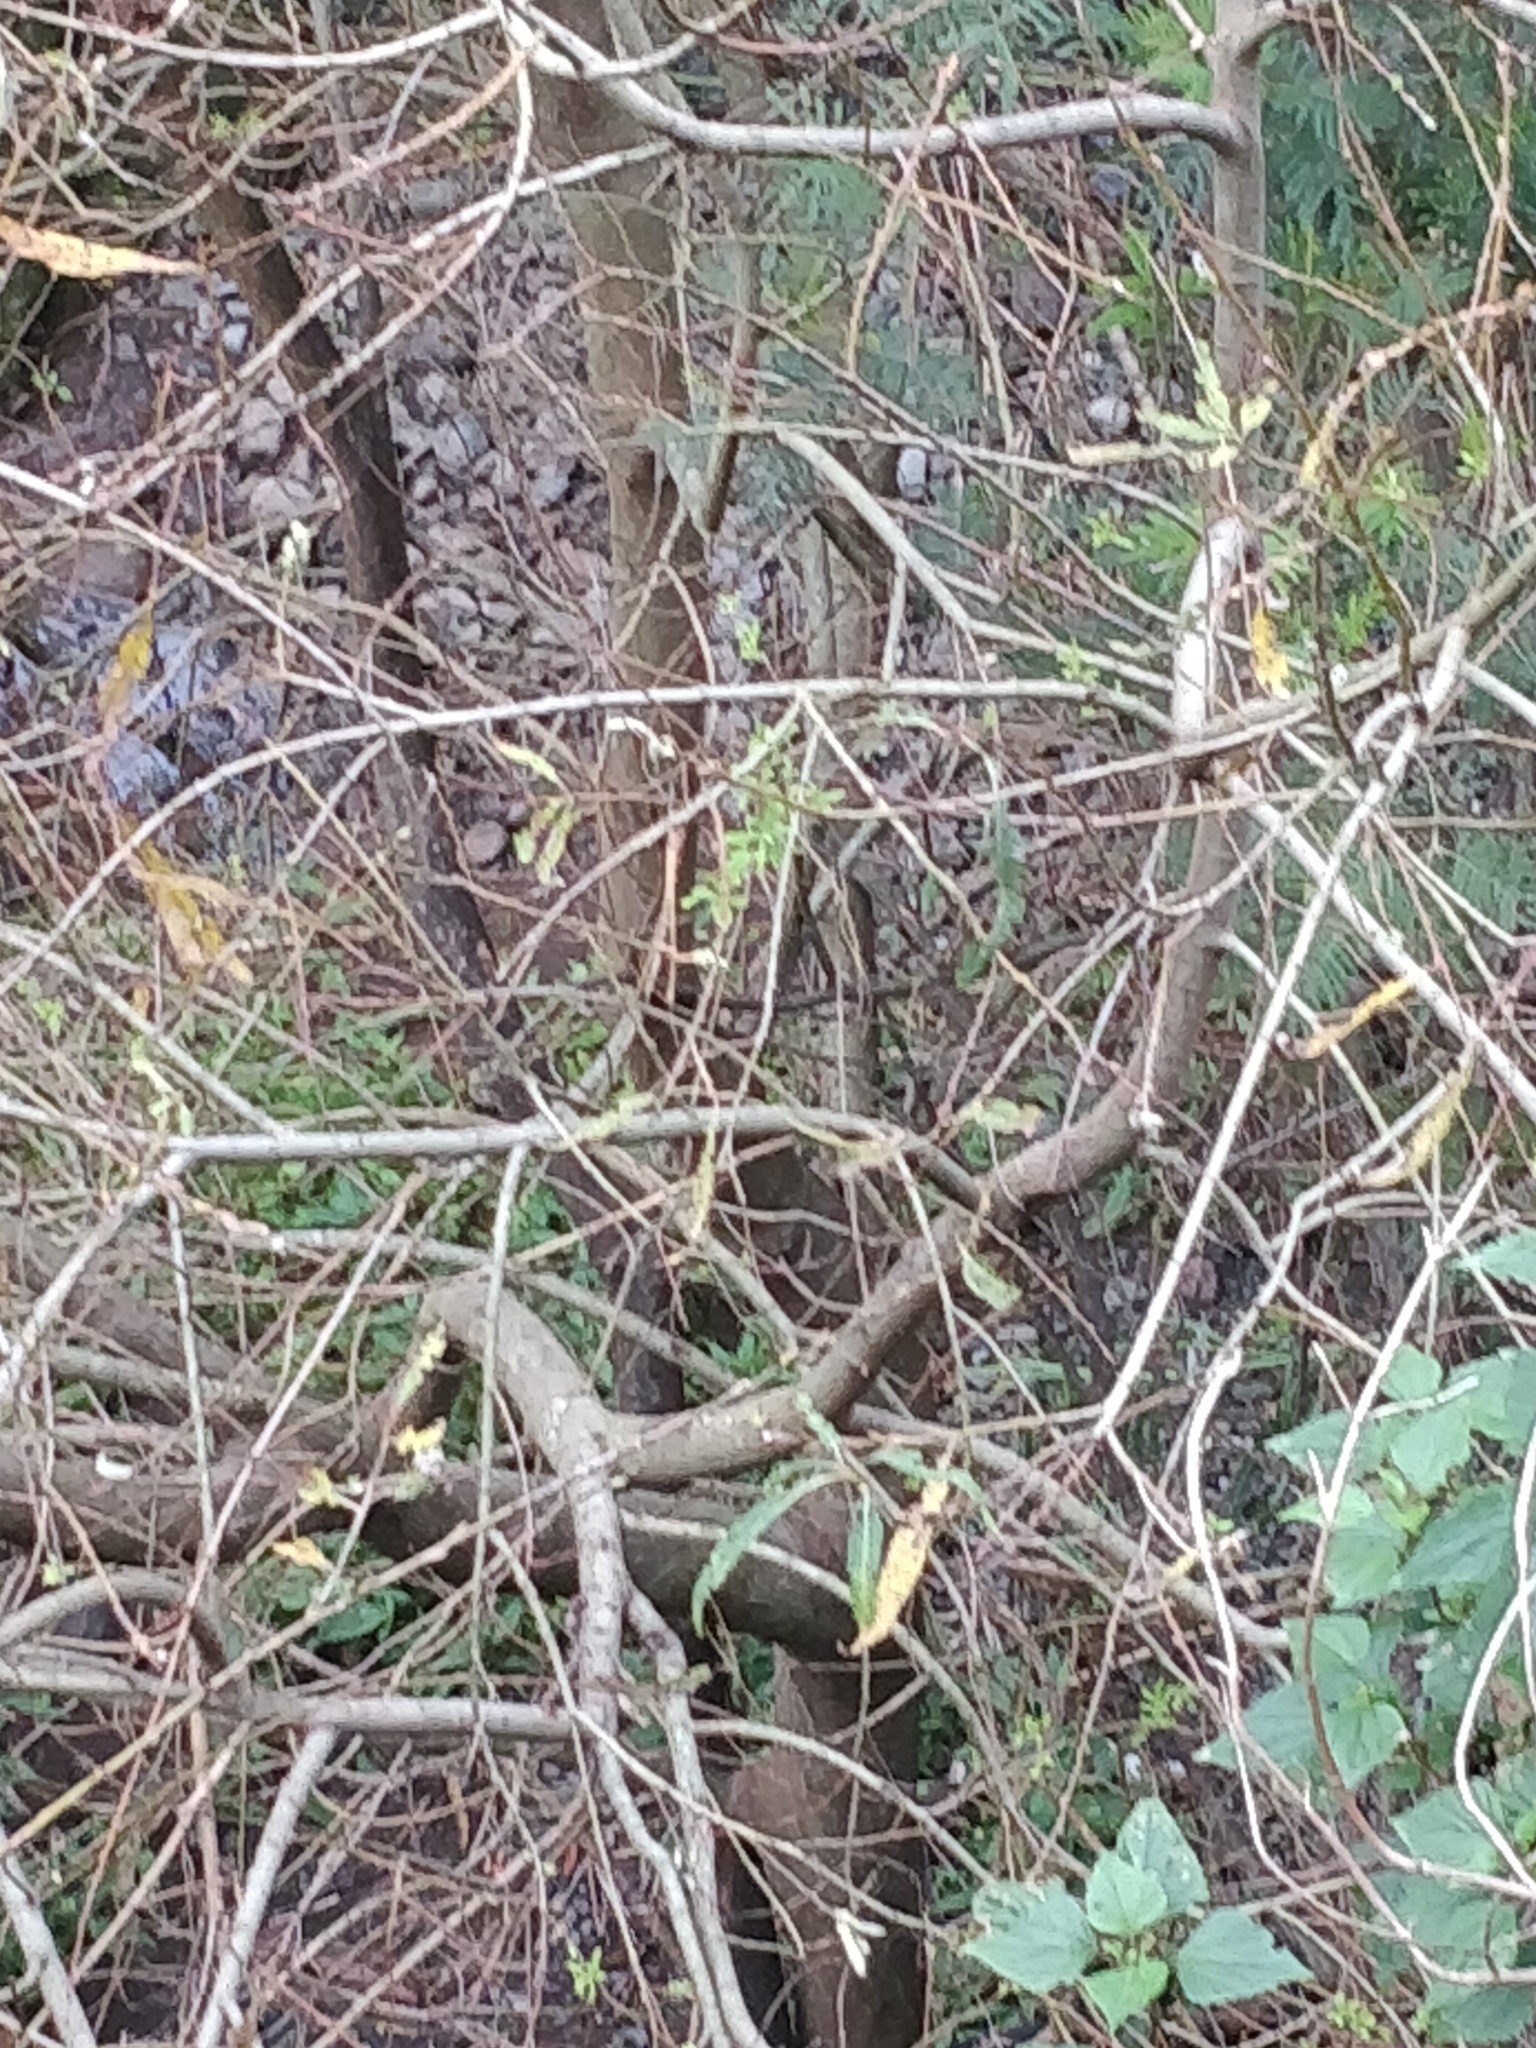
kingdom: Plantae
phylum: Tracheophyta
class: Magnoliopsida
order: Malpighiales
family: Salicaceae
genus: Salix
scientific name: Salix canariensis
